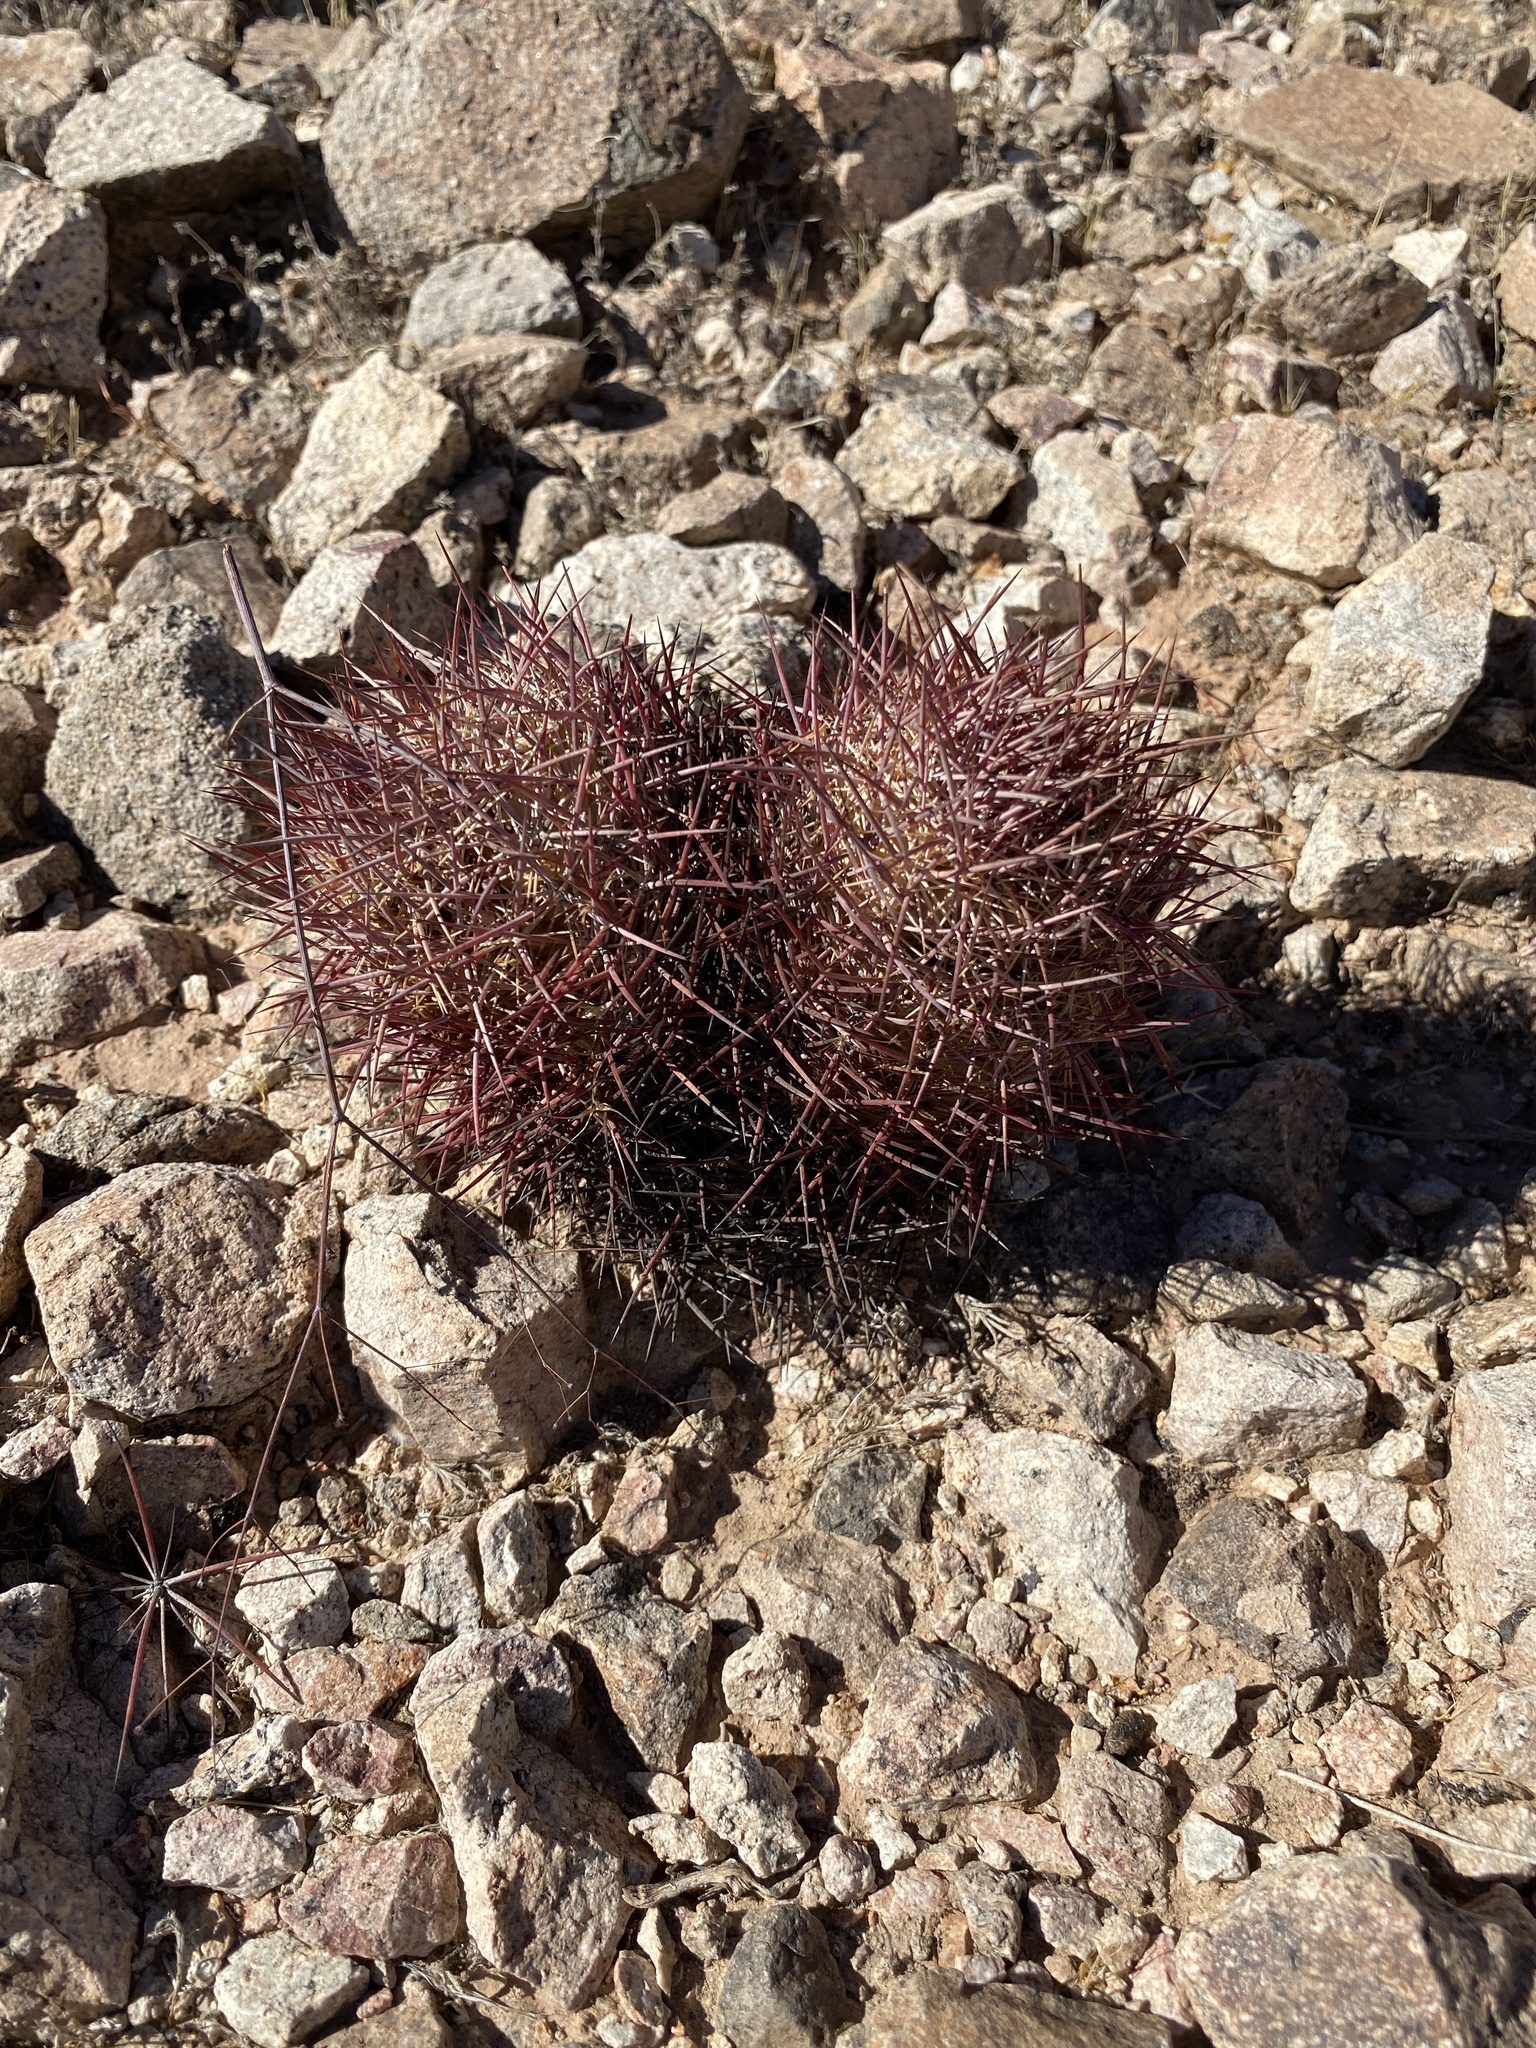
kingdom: Plantae
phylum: Tracheophyta
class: Magnoliopsida
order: Caryophyllales
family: Cactaceae
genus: Sclerocactus
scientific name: Sclerocactus johnsonii
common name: Eight-spine fishhook cactus
